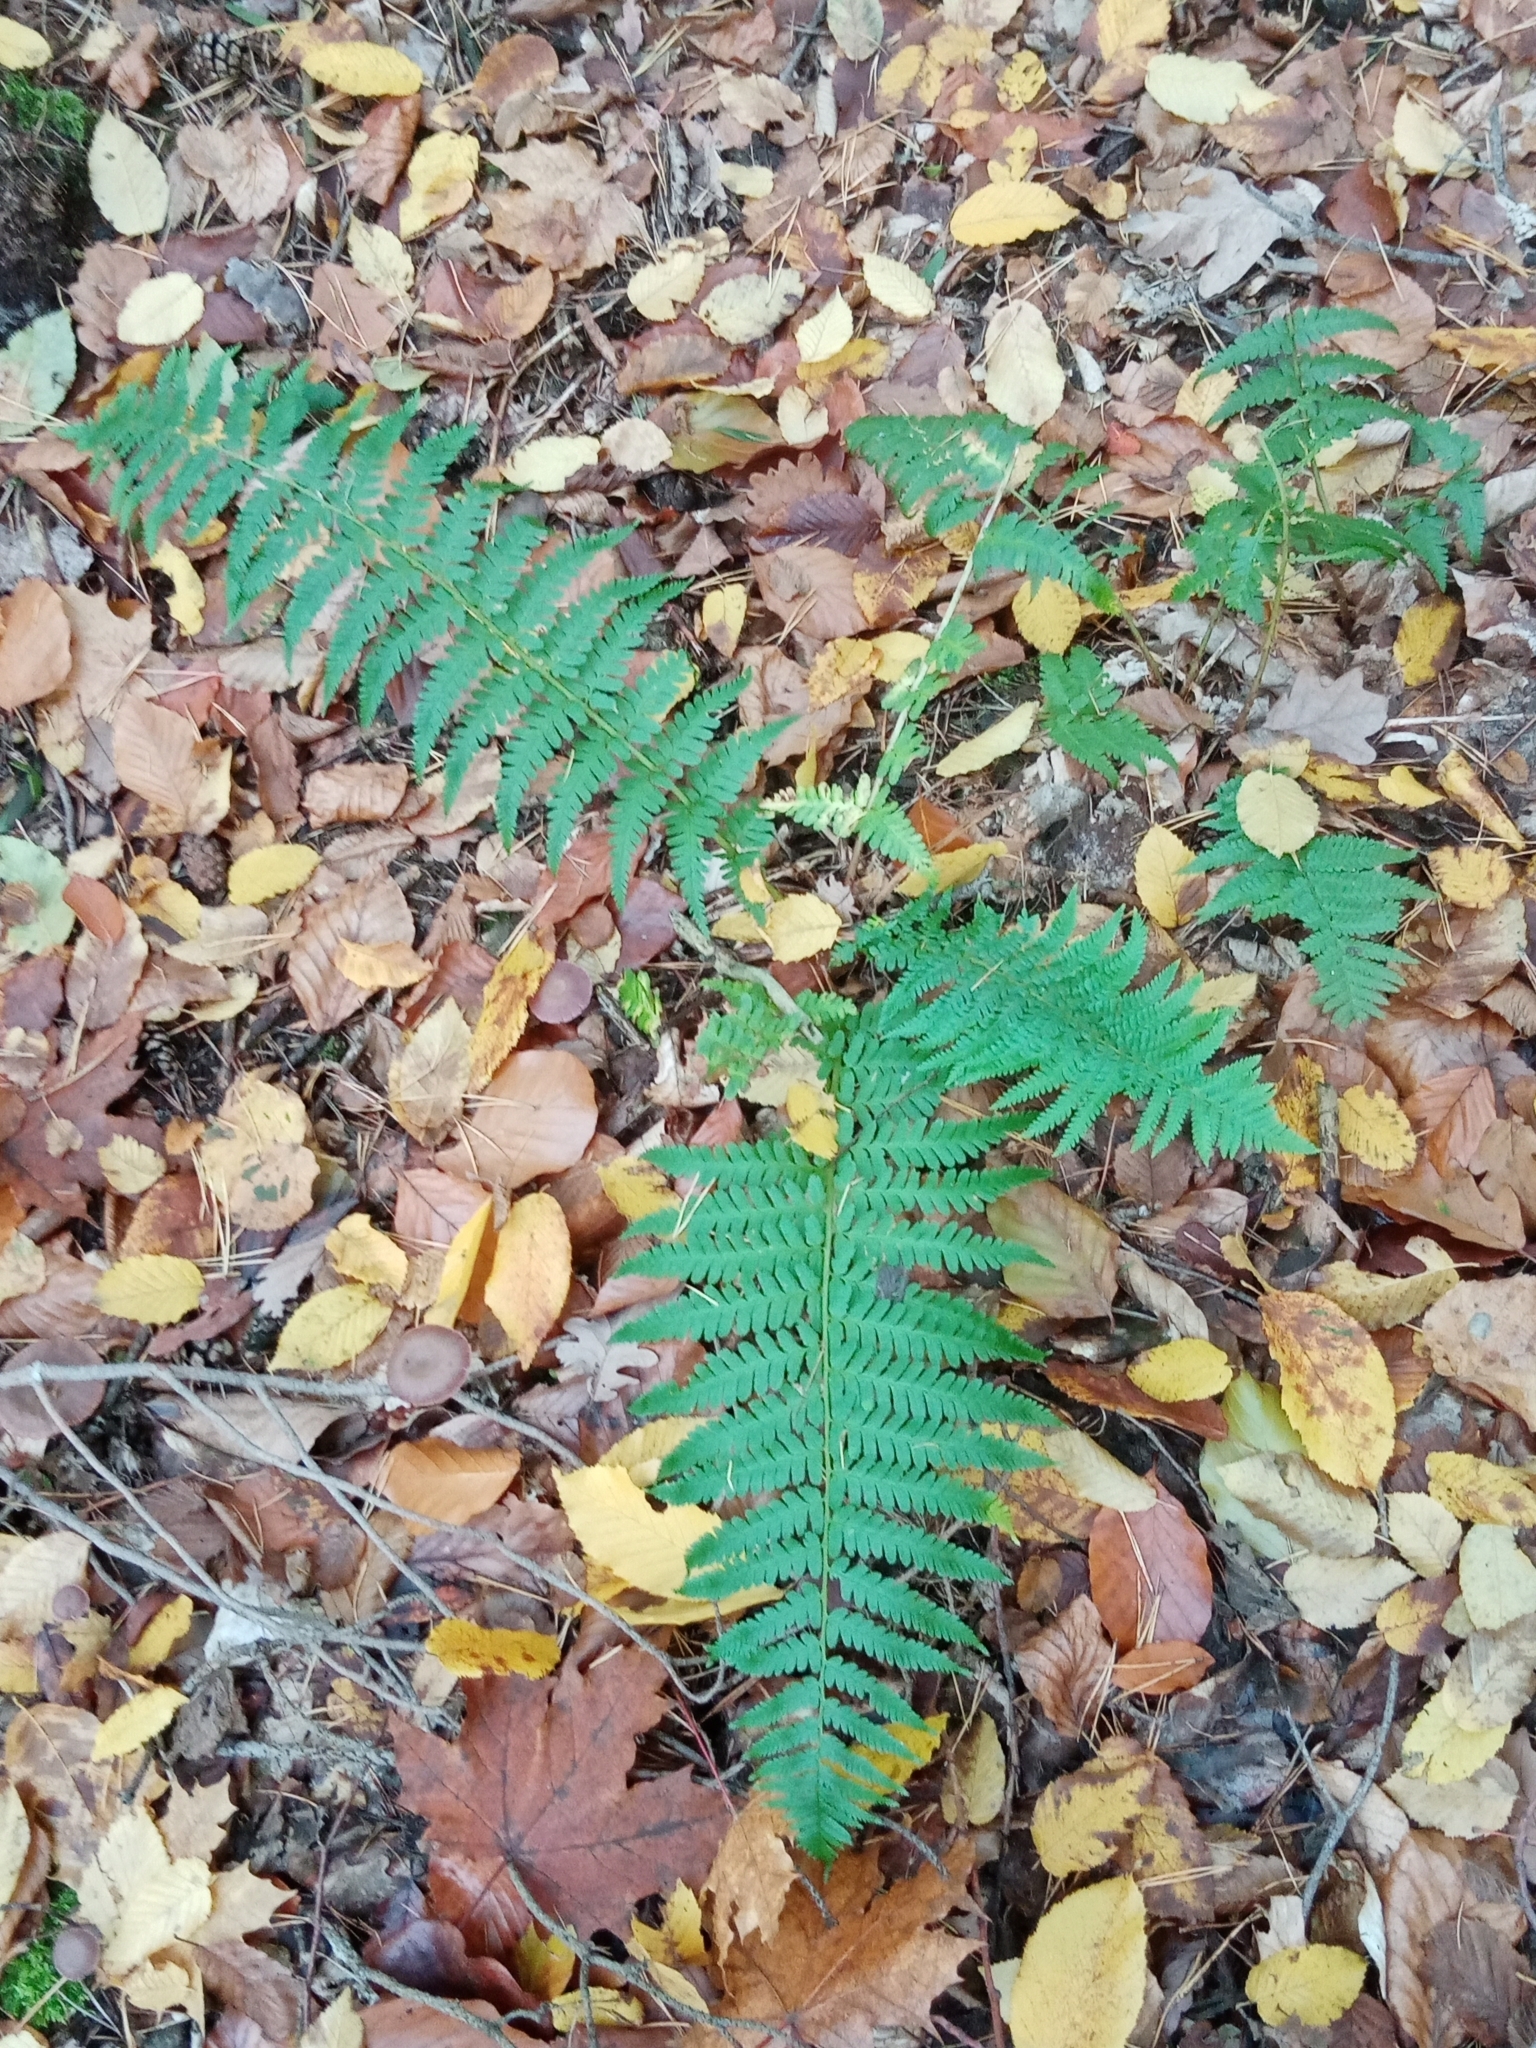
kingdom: Plantae
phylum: Tracheophyta
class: Polypodiopsida
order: Polypodiales
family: Dryopteridaceae
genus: Dryopteris
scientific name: Dryopteris filix-mas
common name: Male fern
